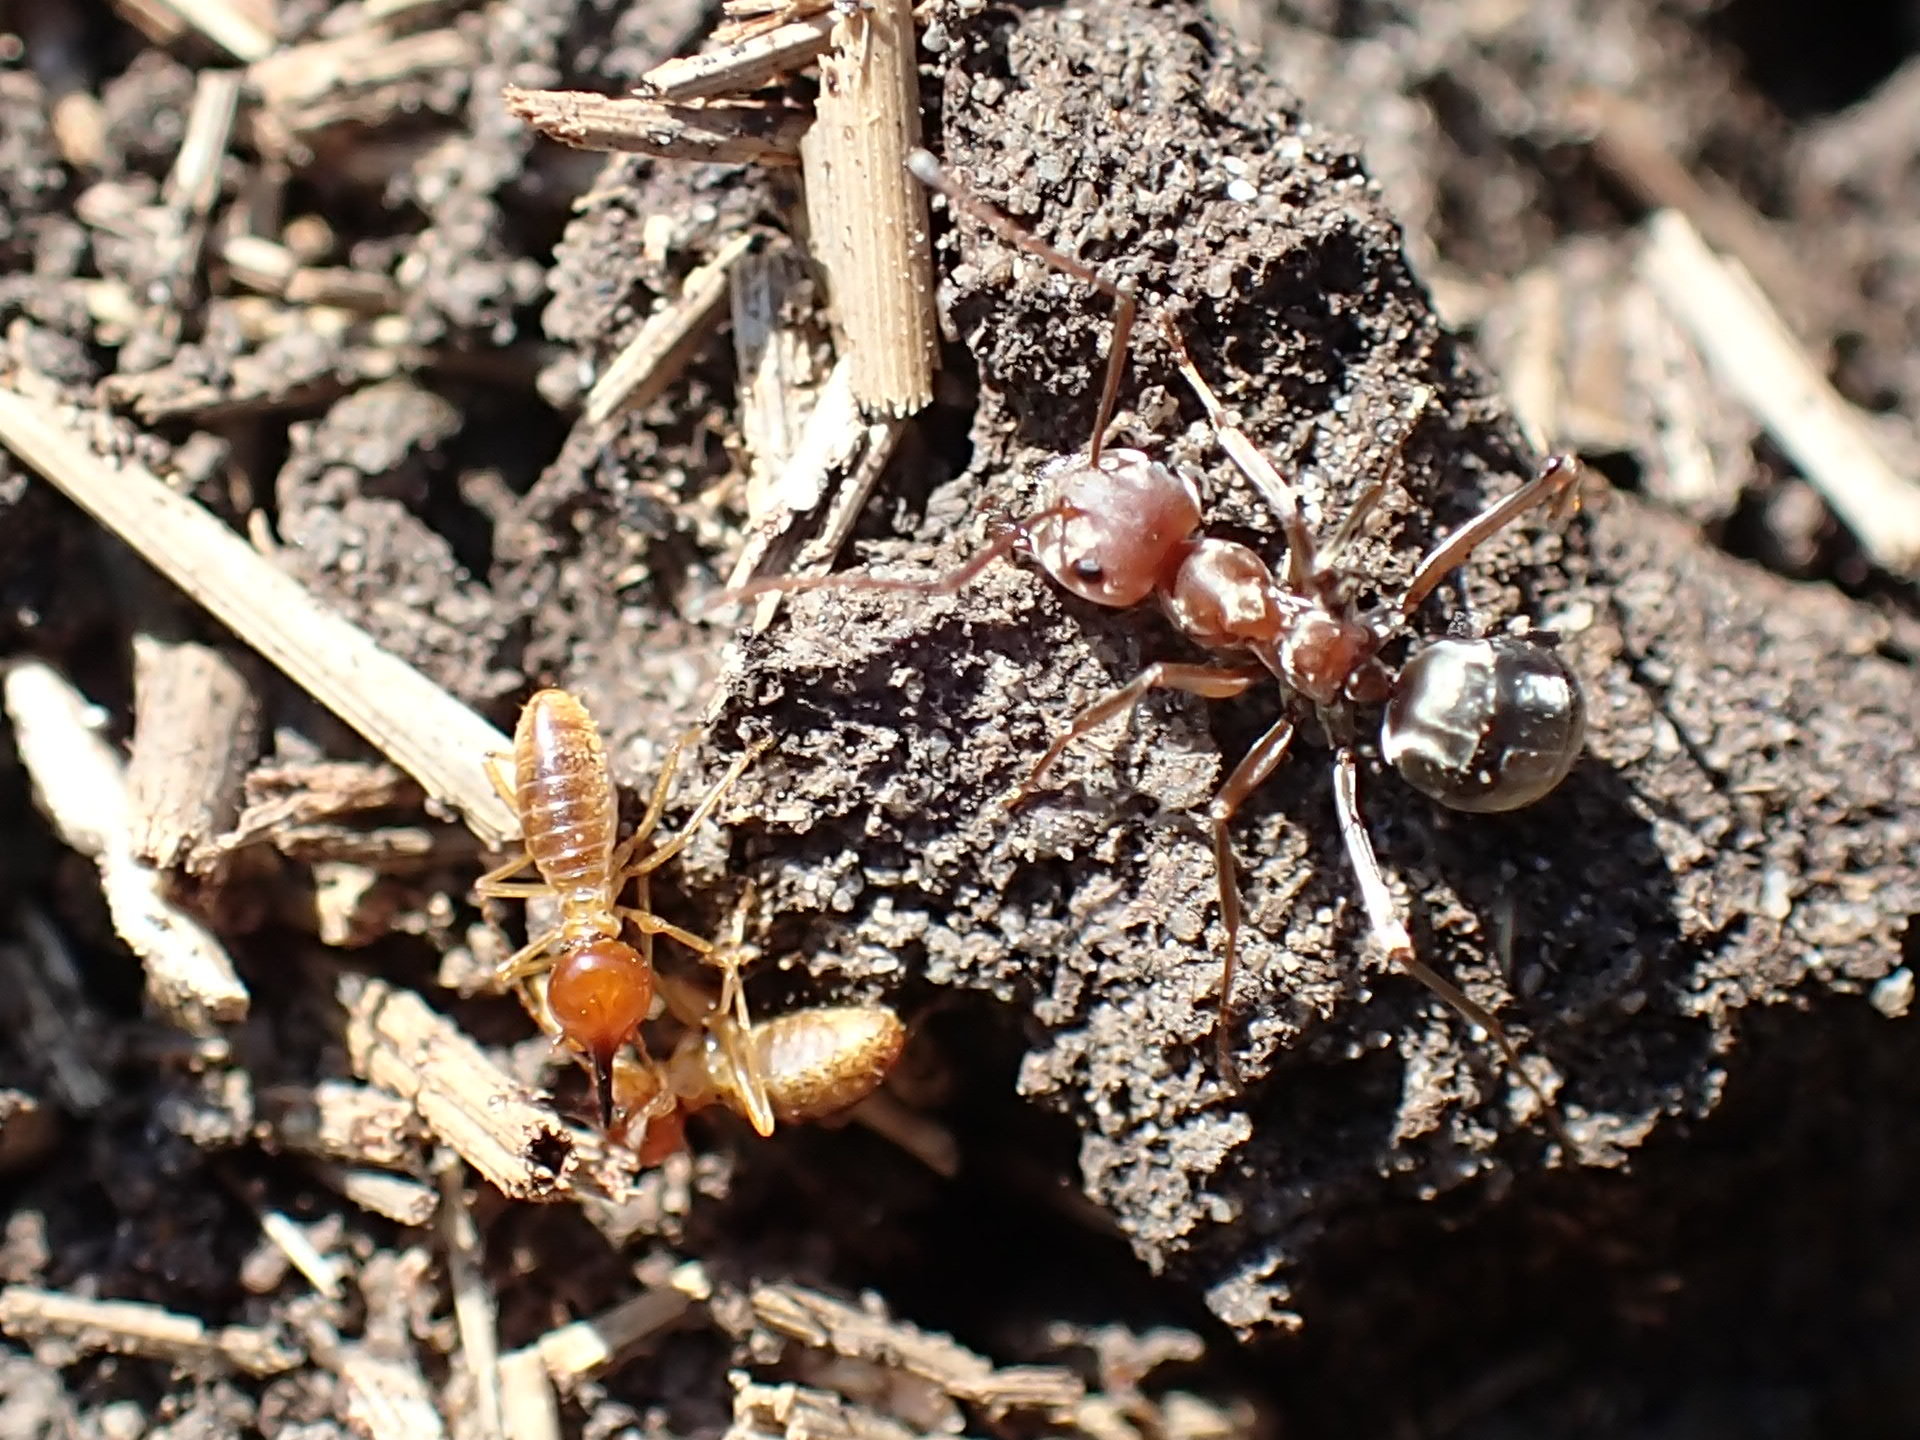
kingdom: Animalia
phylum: Arthropoda
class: Insecta
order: Hymenoptera
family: Formicidae
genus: Anoplolepis
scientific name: Anoplolepis custodiens
